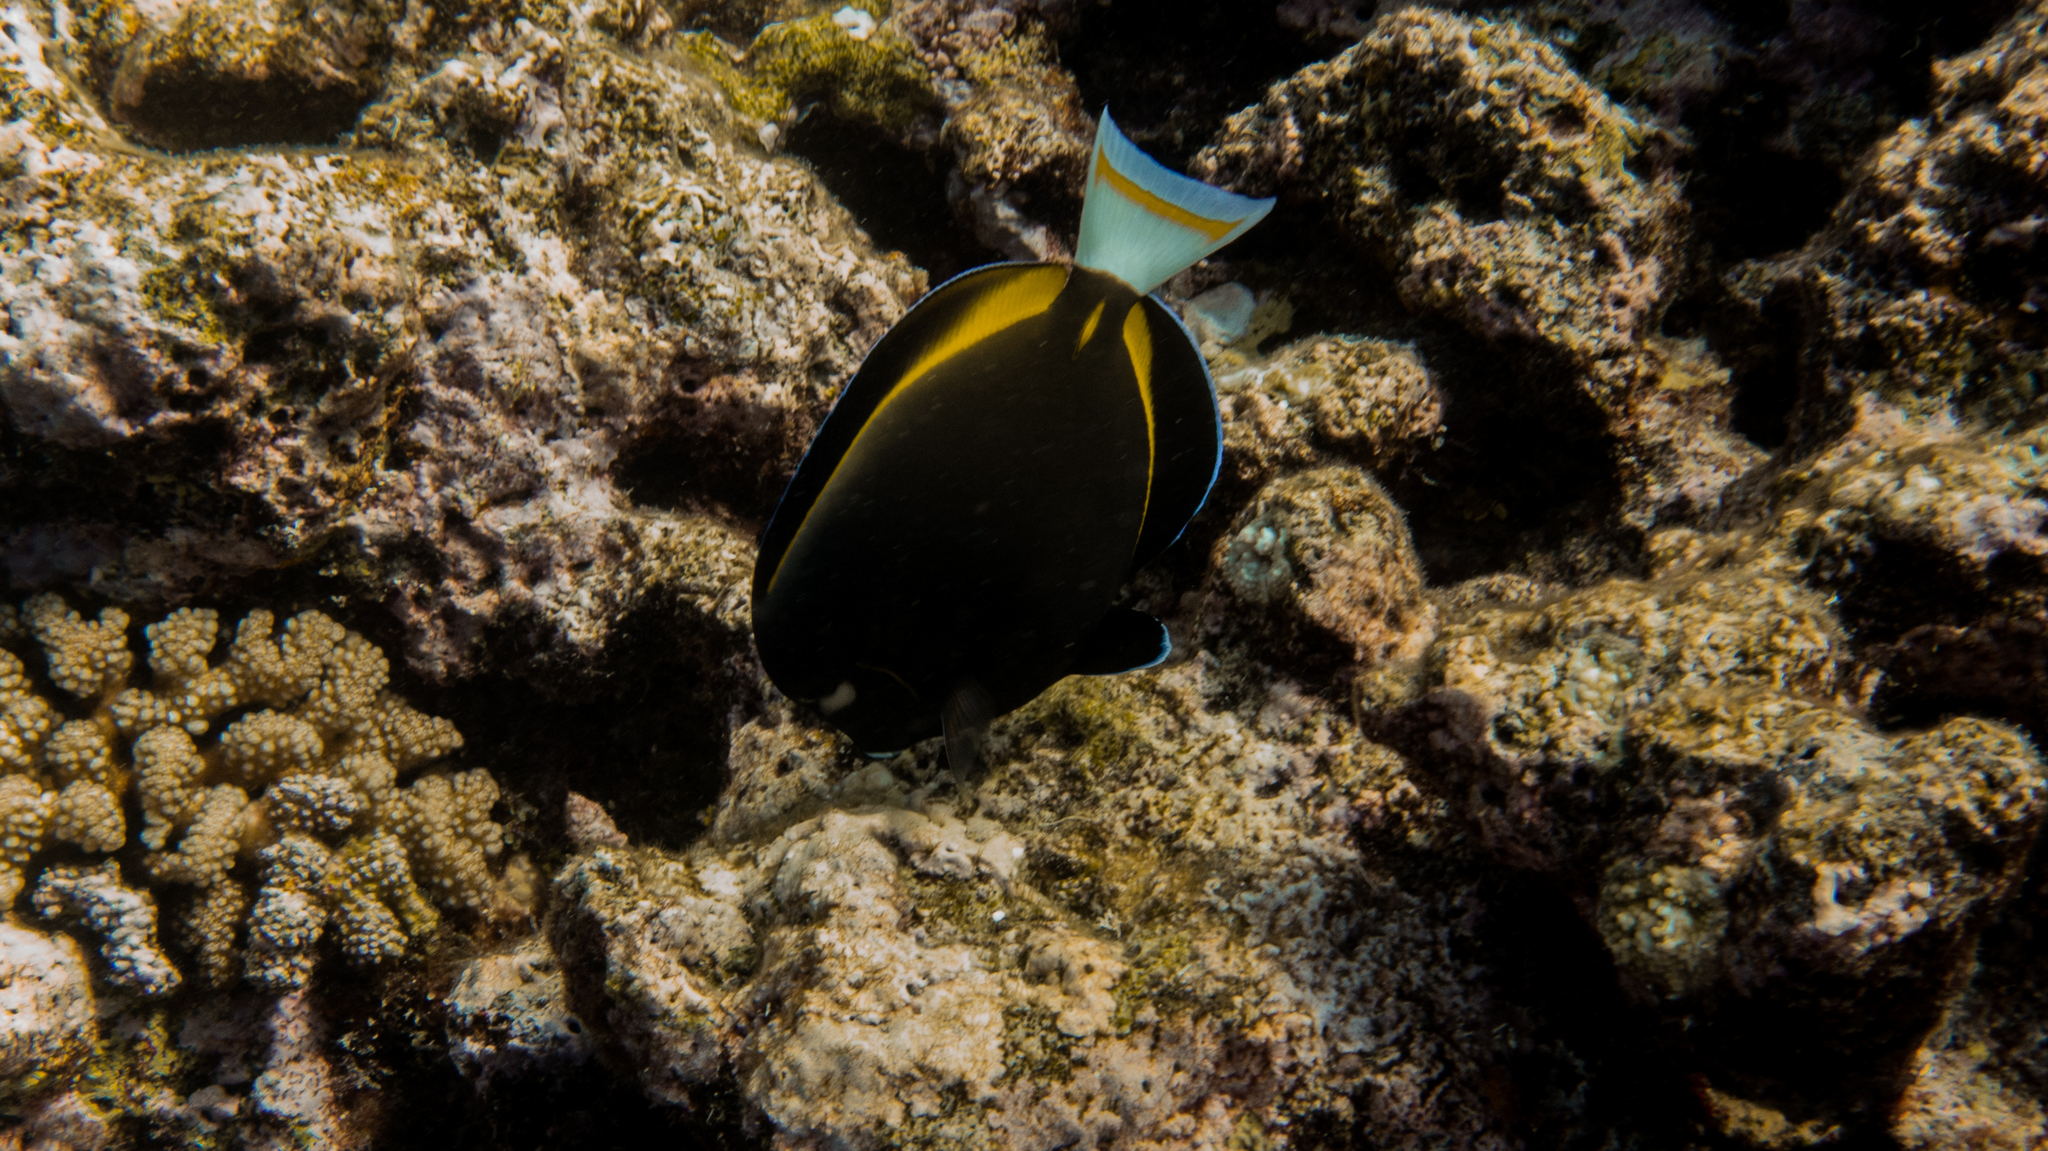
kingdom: Animalia
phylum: Chordata
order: Perciformes
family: Acanthuridae
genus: Acanthurus
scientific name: Acanthurus nigricans
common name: Whitecheek surgeonfish
